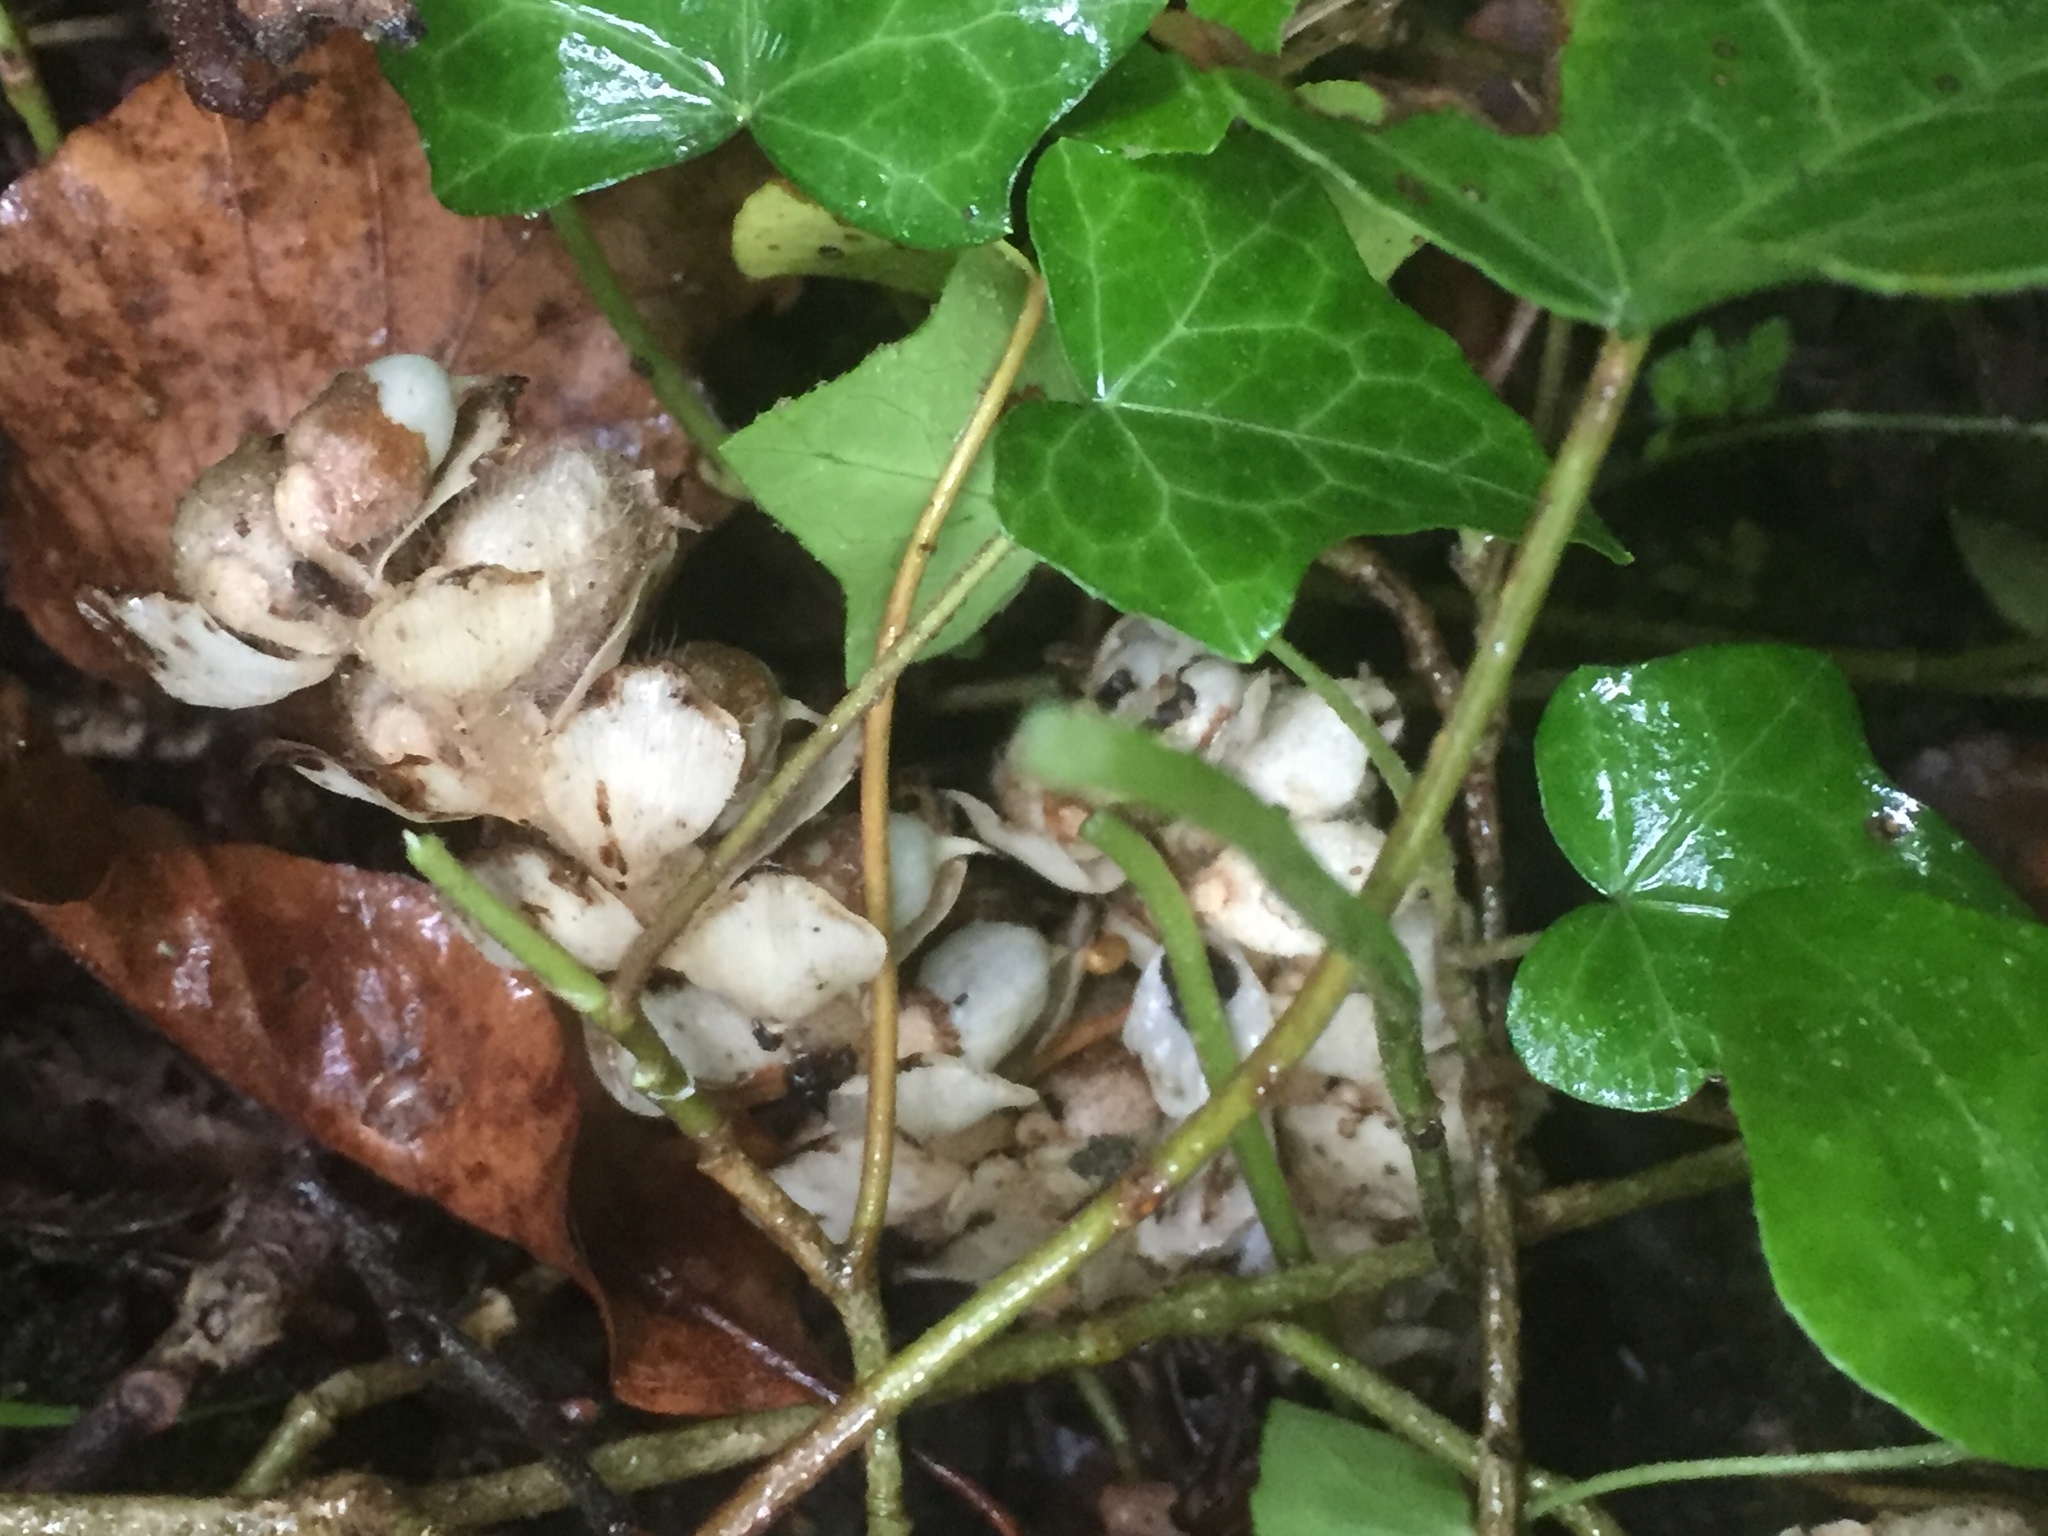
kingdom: Plantae
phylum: Tracheophyta
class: Magnoliopsida
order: Lamiales
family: Orobanchaceae
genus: Lathraea
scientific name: Lathraea squamaria
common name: Toothwort
